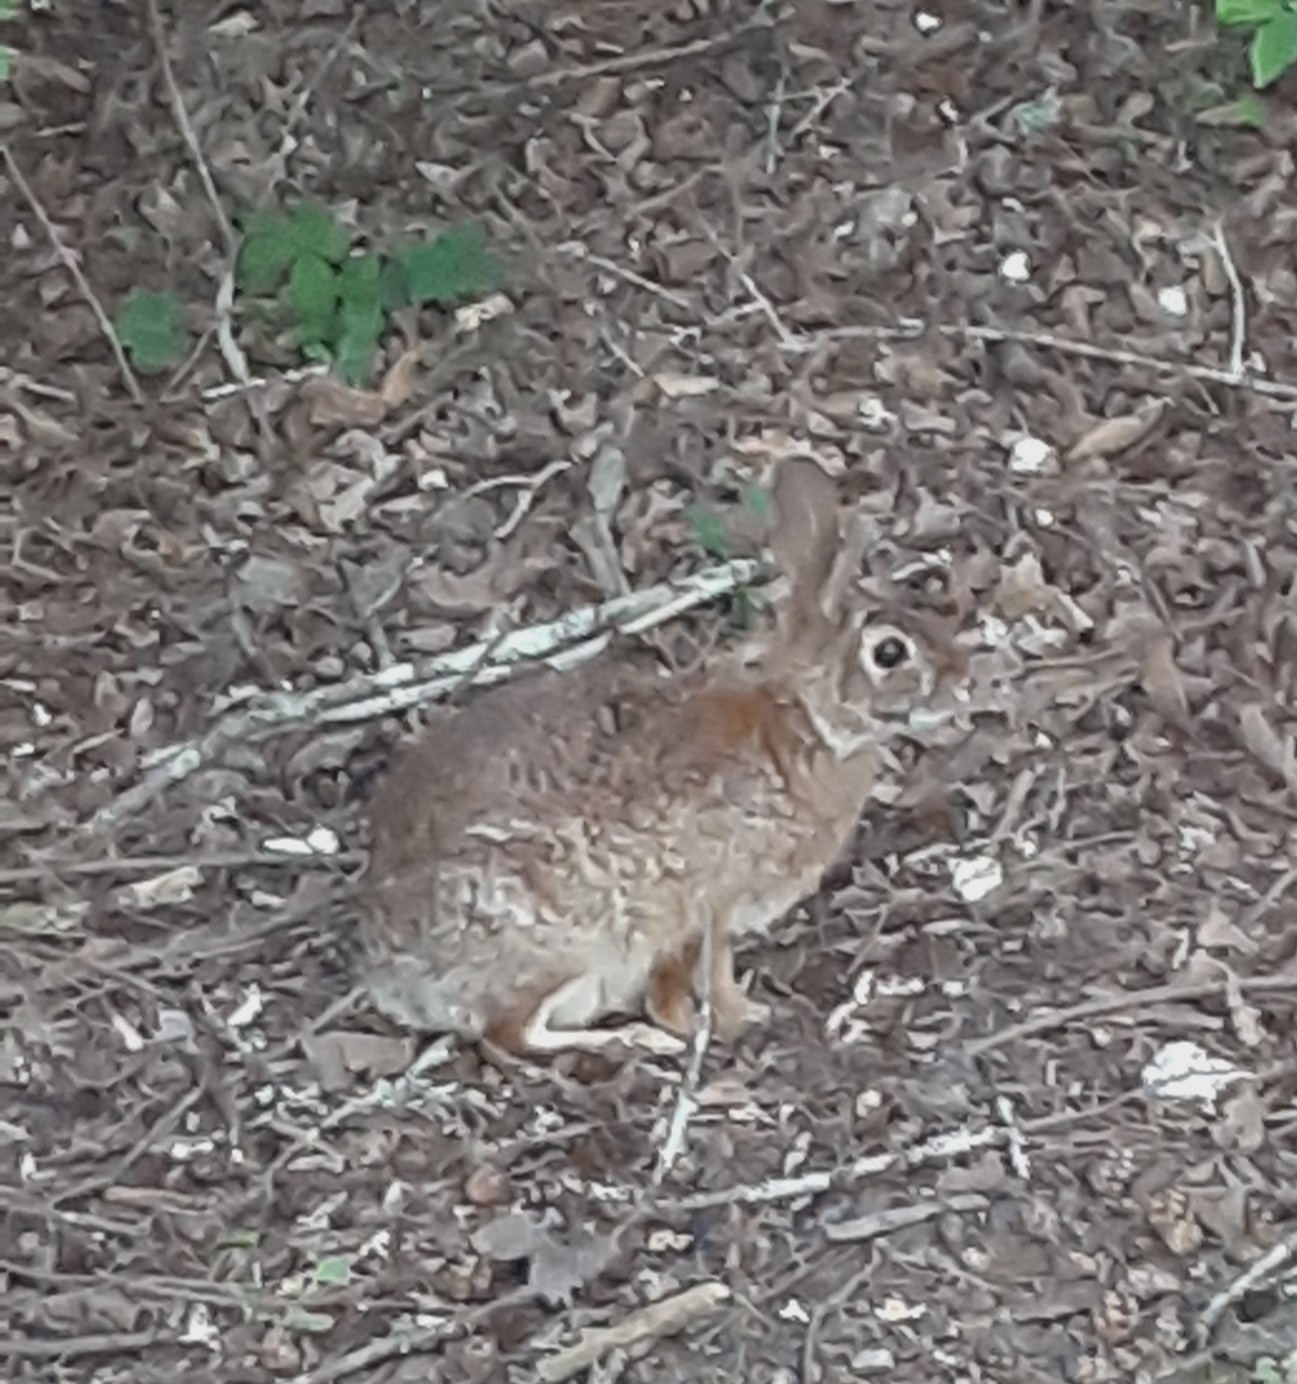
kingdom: Animalia
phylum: Chordata
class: Mammalia
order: Lagomorpha
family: Leporidae
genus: Sylvilagus
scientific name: Sylvilagus floridanus
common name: Eastern cottontail
